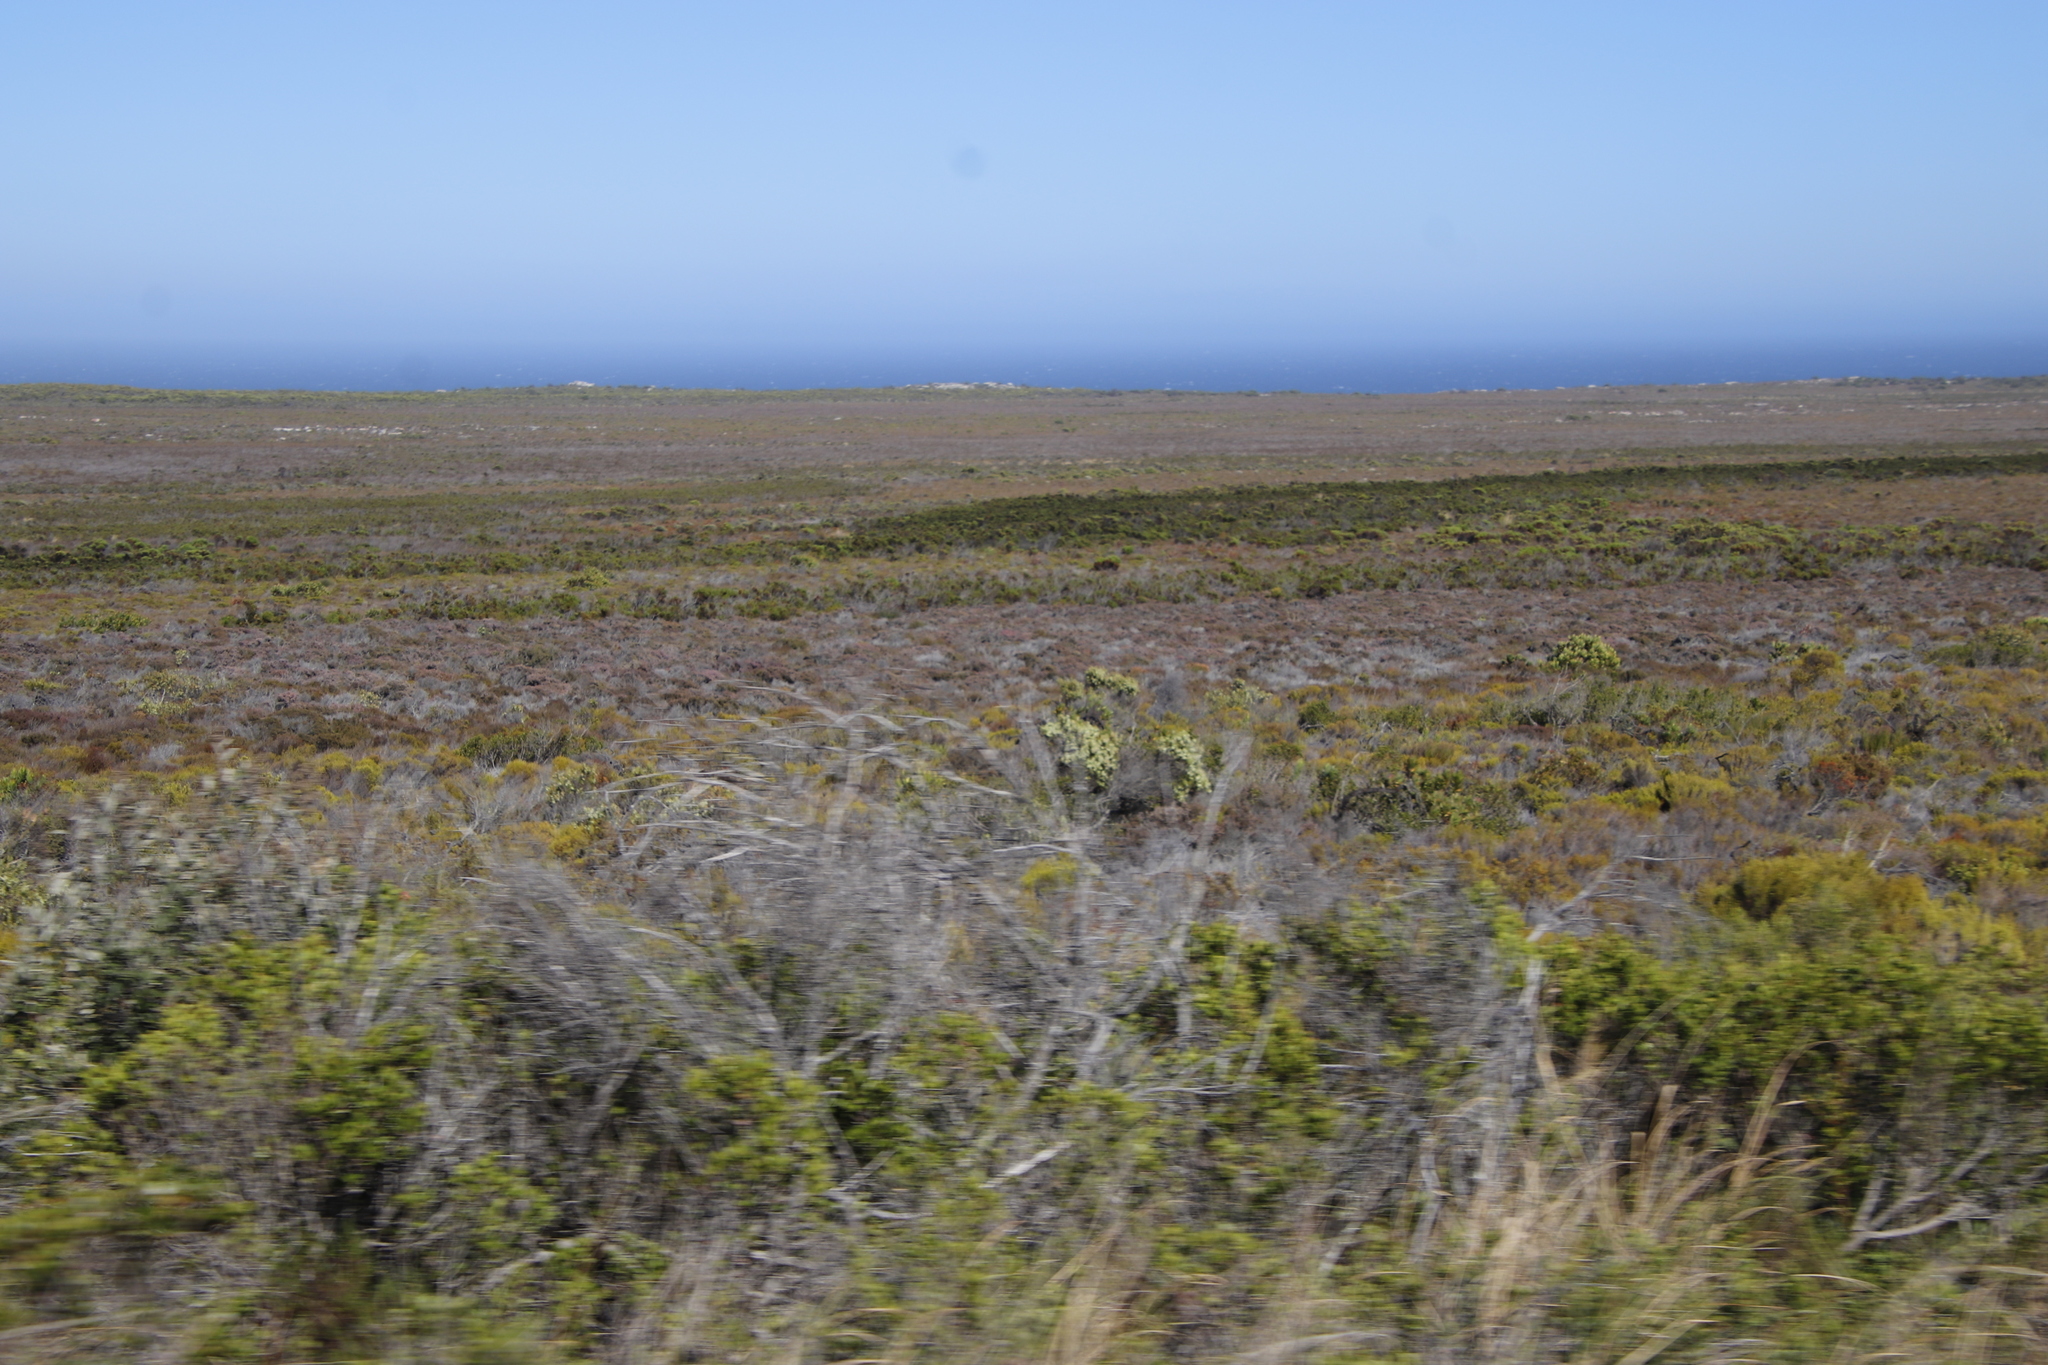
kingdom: Plantae
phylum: Tracheophyta
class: Magnoliopsida
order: Ericales
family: Ericaceae
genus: Erica
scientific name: Erica mammosa
